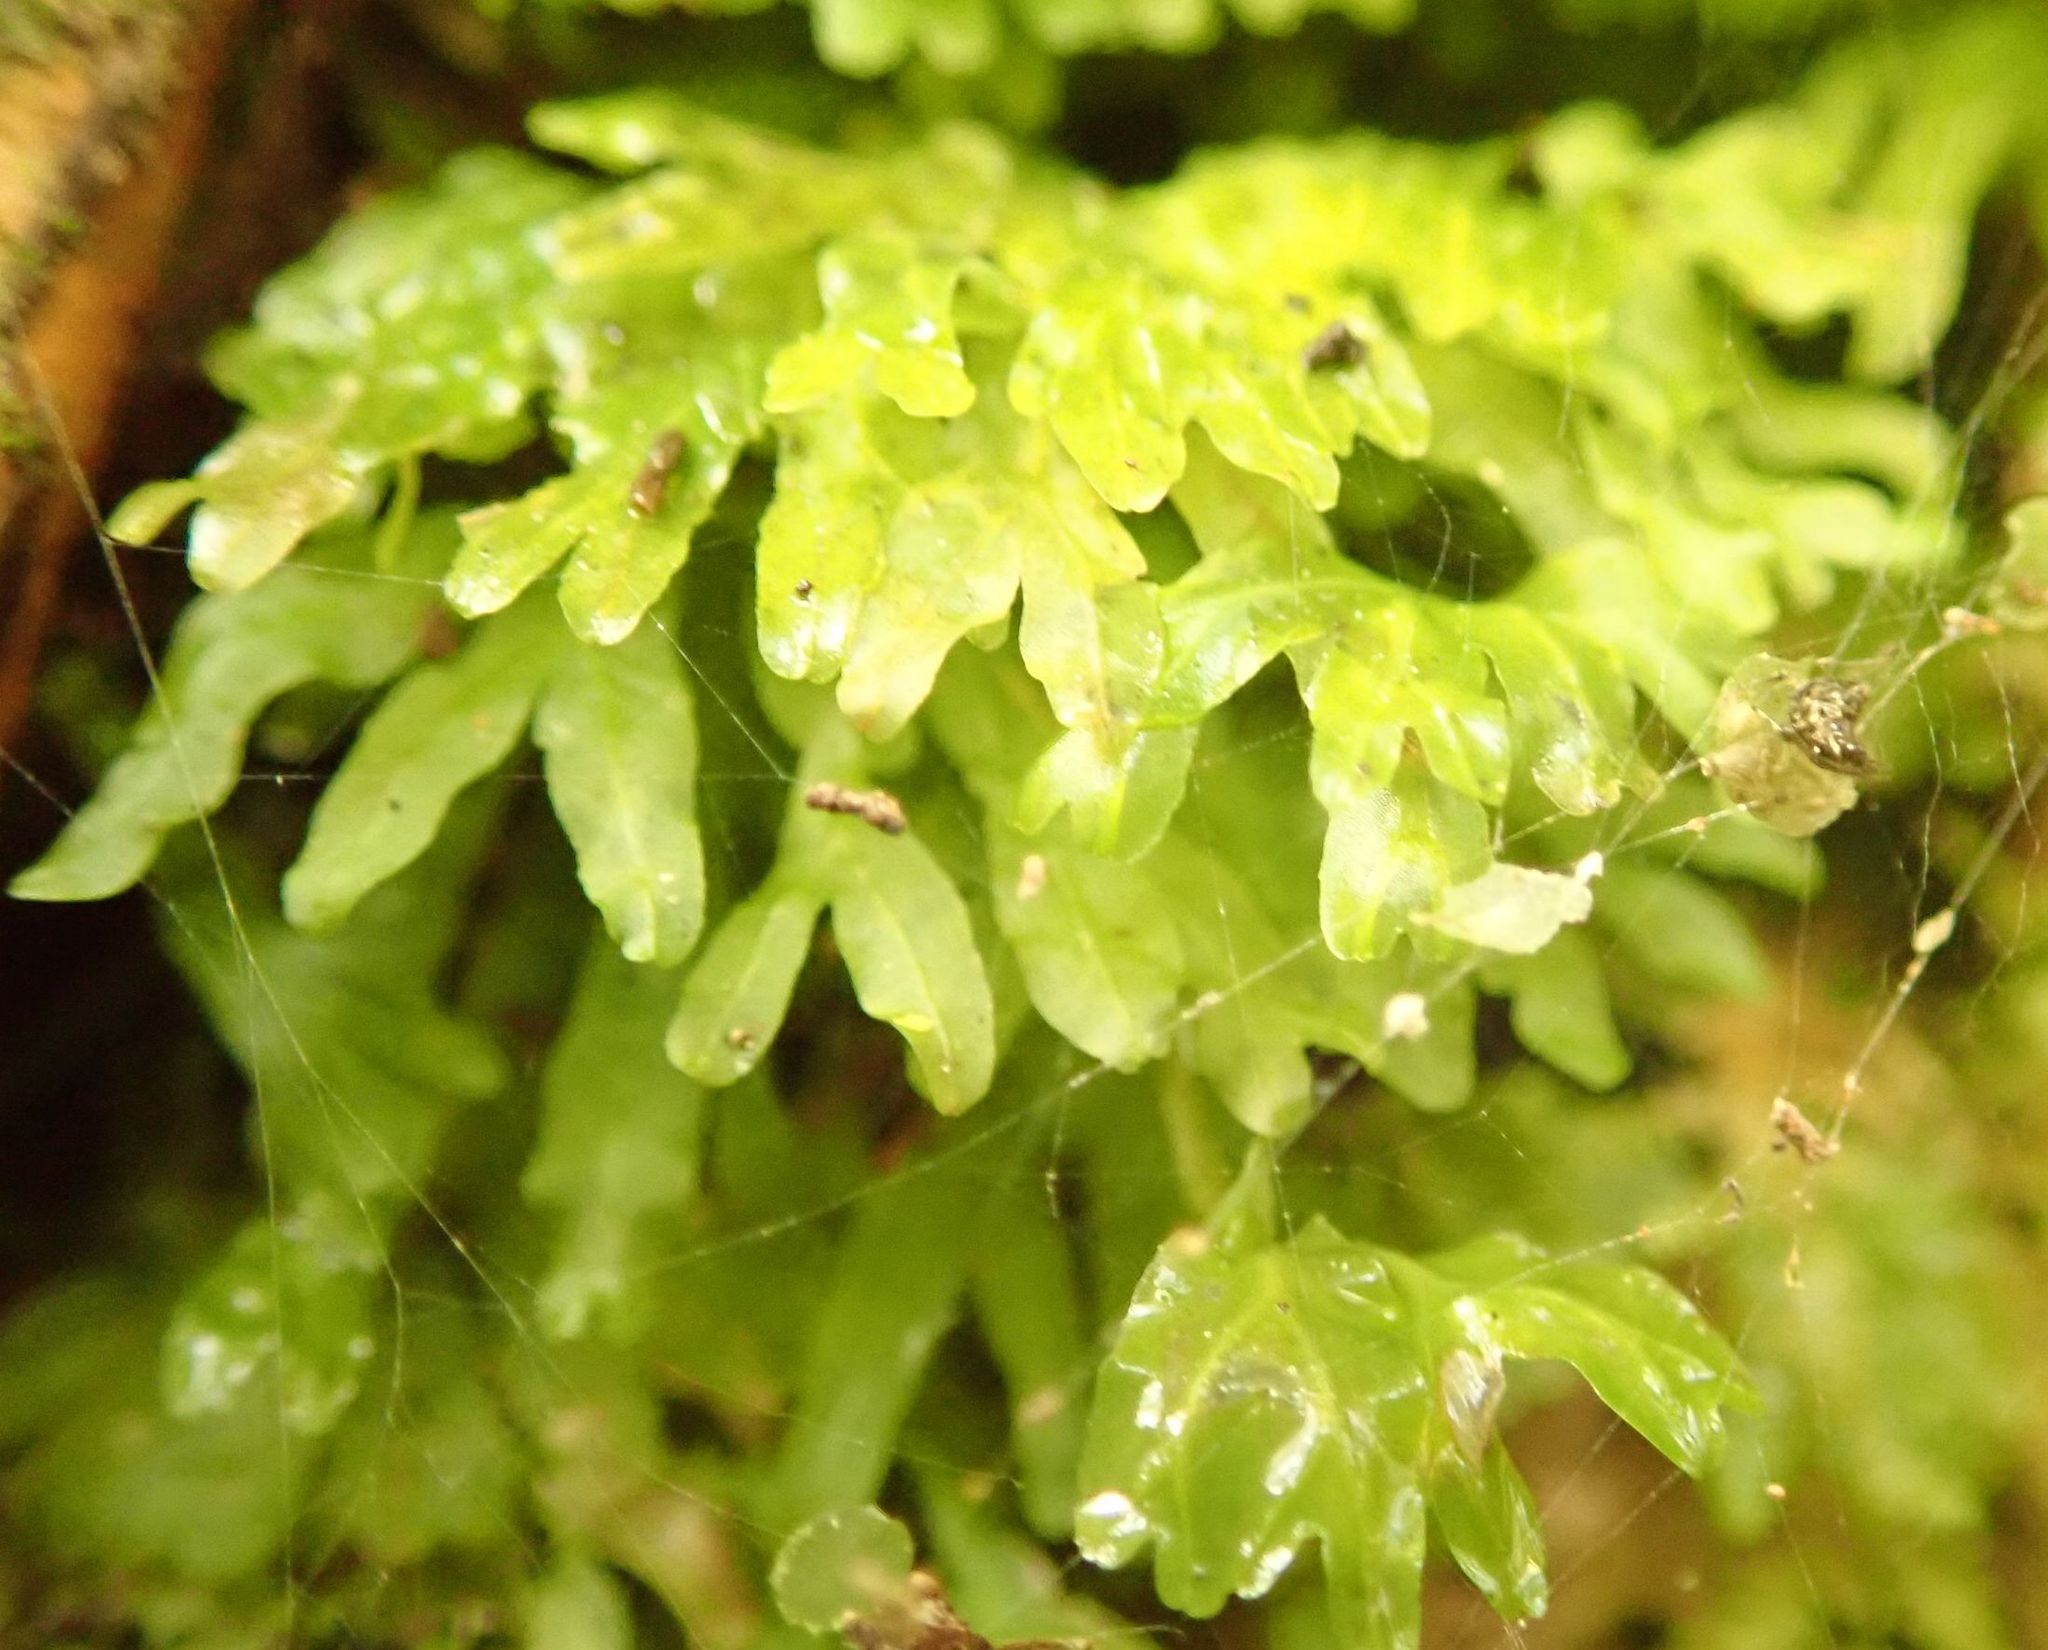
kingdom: Plantae
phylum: Marchantiophyta
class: Jungermanniopsida
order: Pallaviciniales
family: Pallaviciniaceae
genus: Symphyogyna
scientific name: Symphyogyna hymenophyllum
